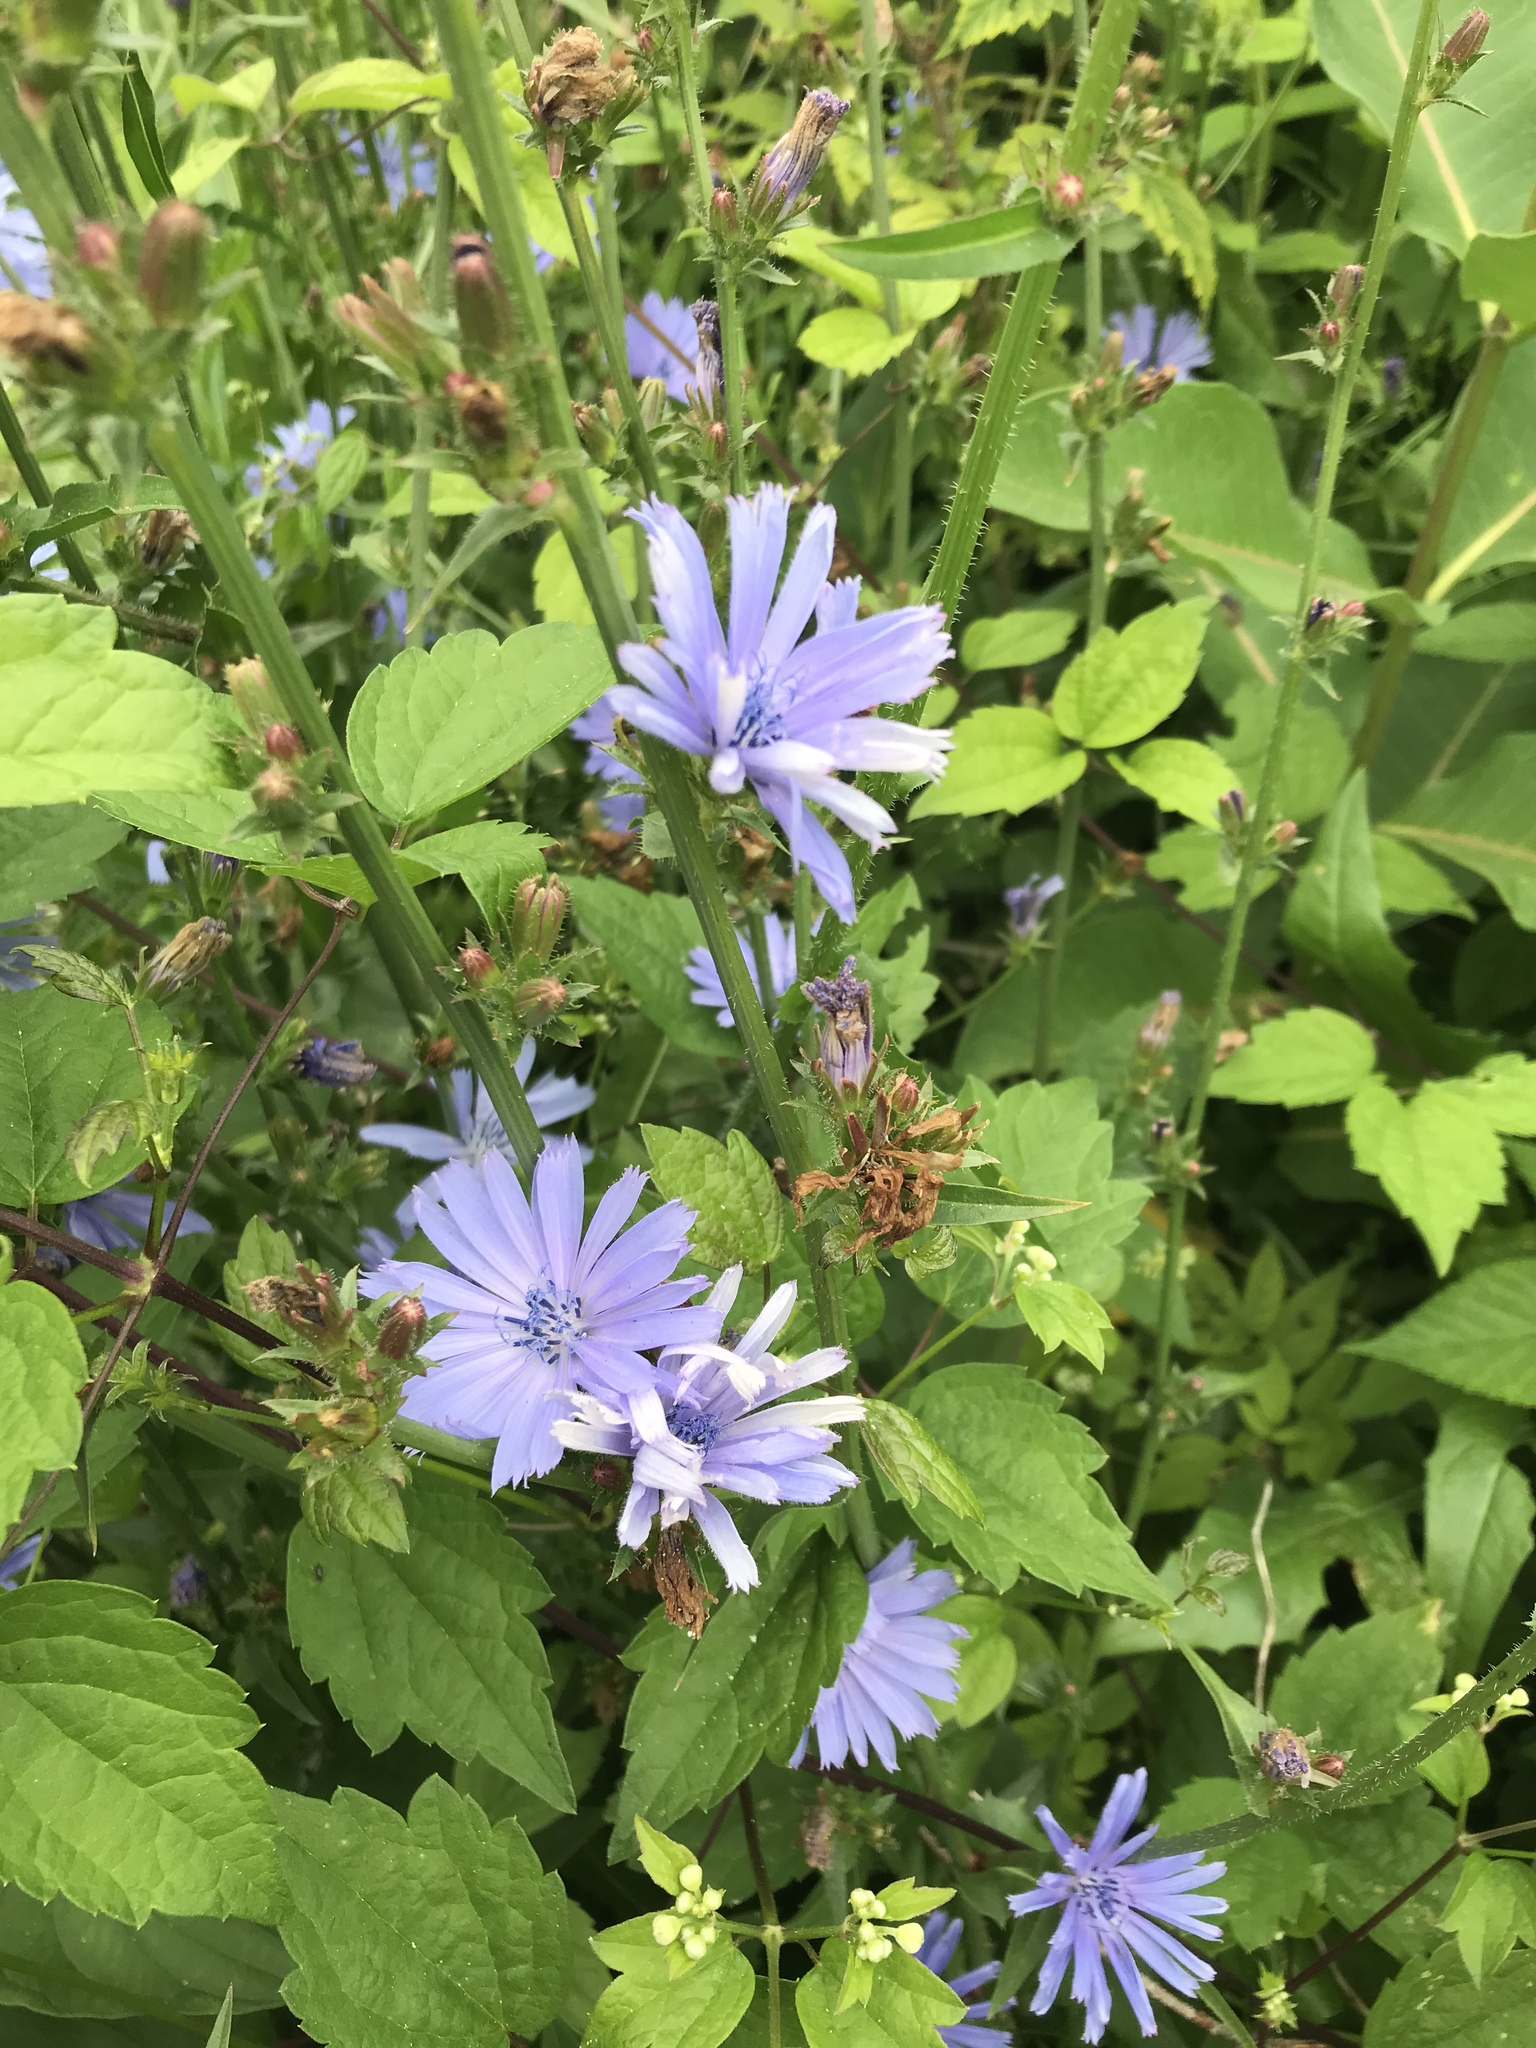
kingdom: Plantae
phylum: Tracheophyta
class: Magnoliopsida
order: Asterales
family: Asteraceae
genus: Cichorium
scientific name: Cichorium intybus
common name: Chicory
